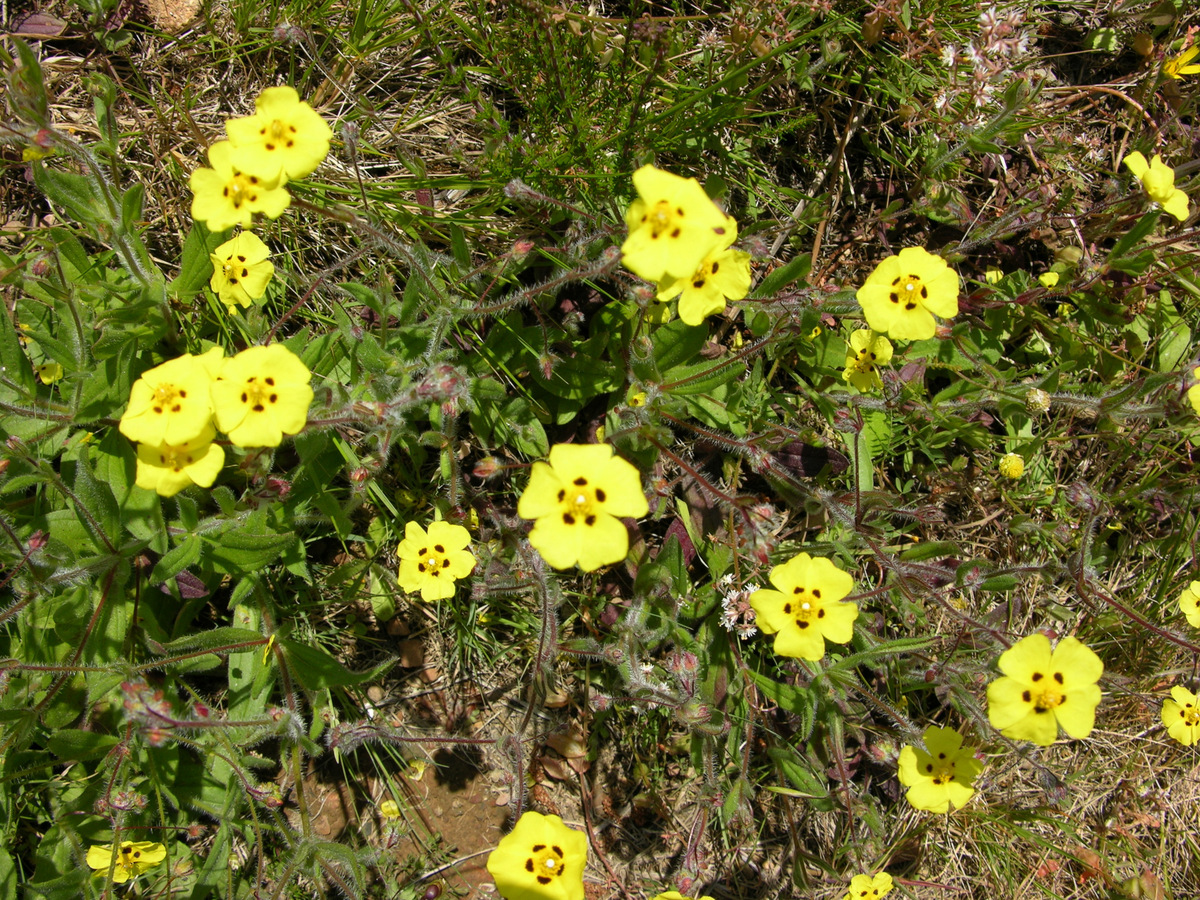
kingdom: Plantae
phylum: Tracheophyta
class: Magnoliopsida
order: Malvales
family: Cistaceae
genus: Tuberaria
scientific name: Tuberaria guttata
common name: Spotted rock-rose
